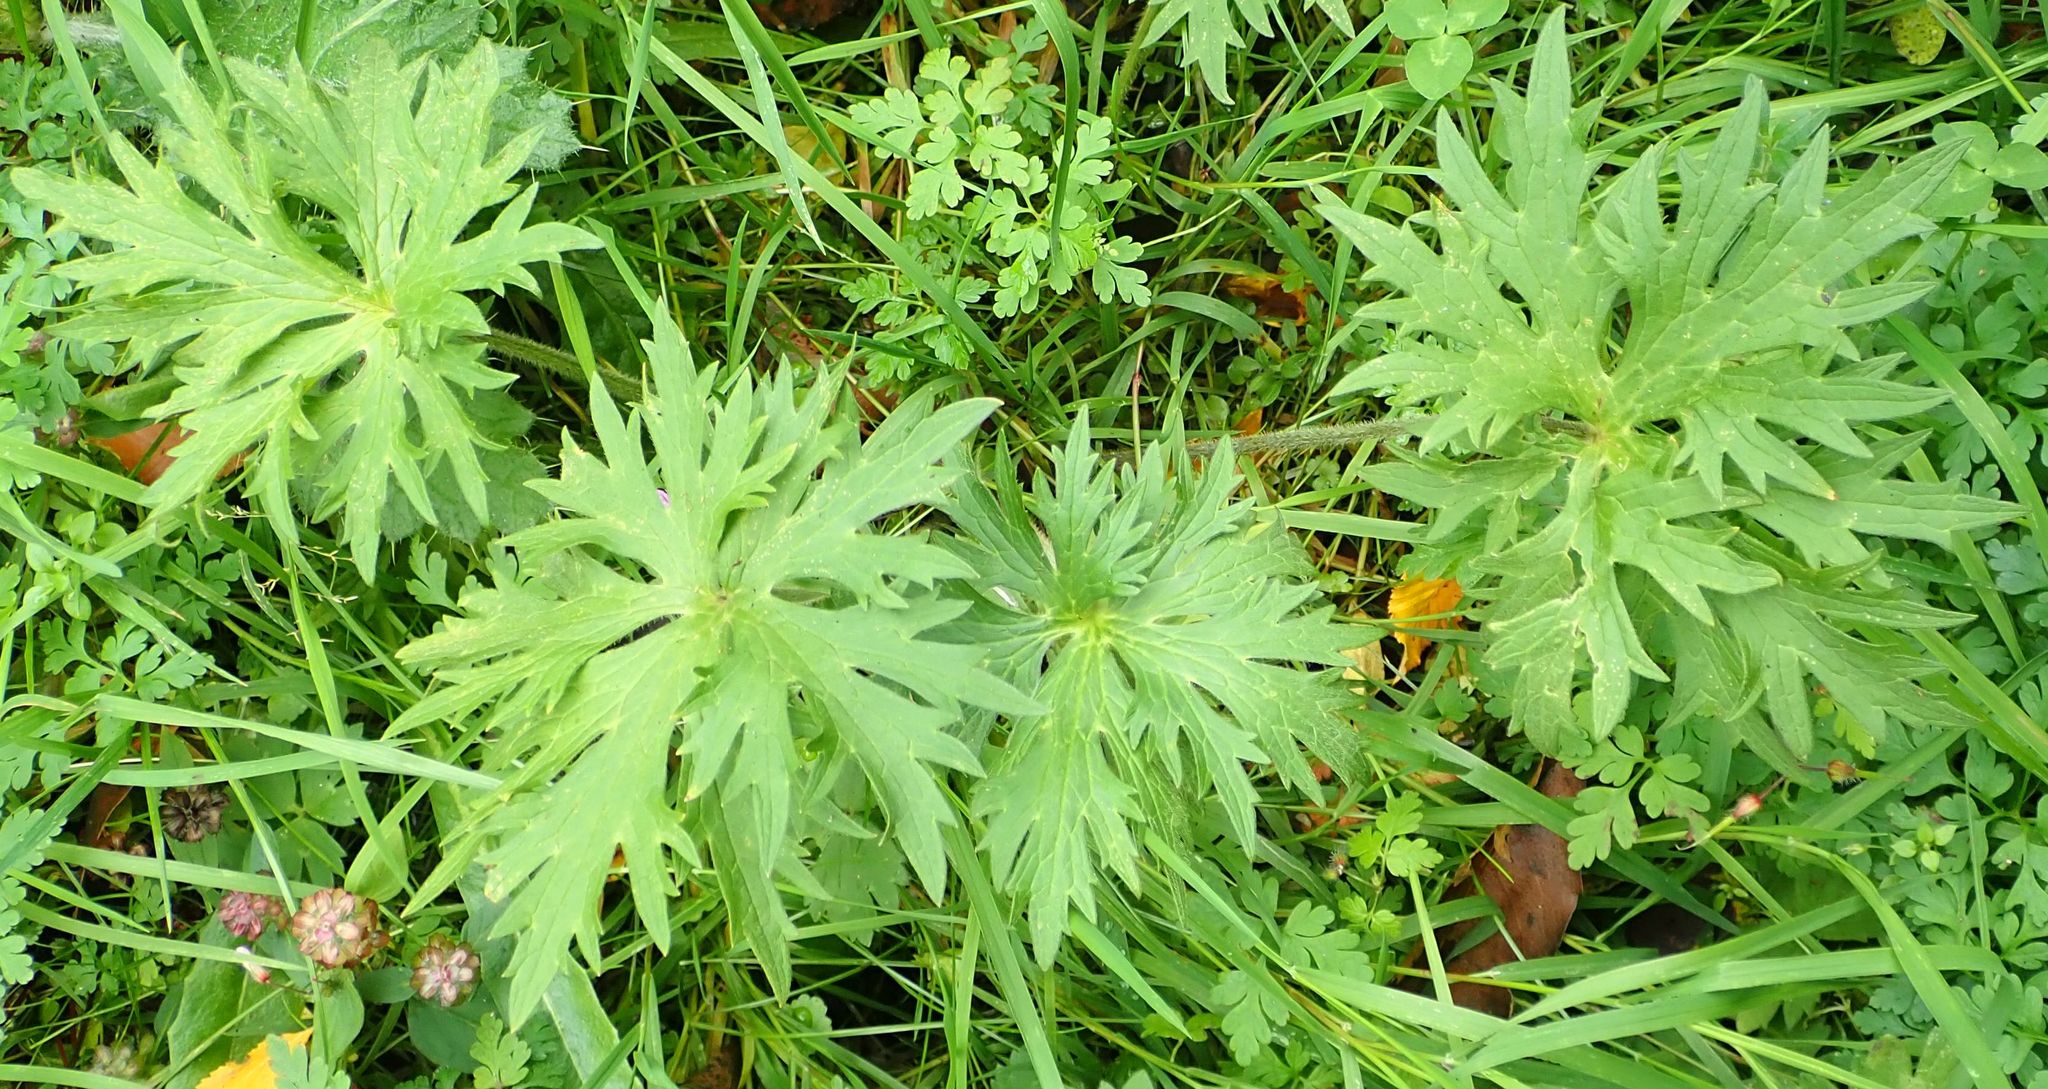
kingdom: Plantae
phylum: Tracheophyta
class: Magnoliopsida
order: Ranunculales
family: Ranunculaceae
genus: Ranunculus
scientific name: Ranunculus acris
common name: Meadow buttercup
